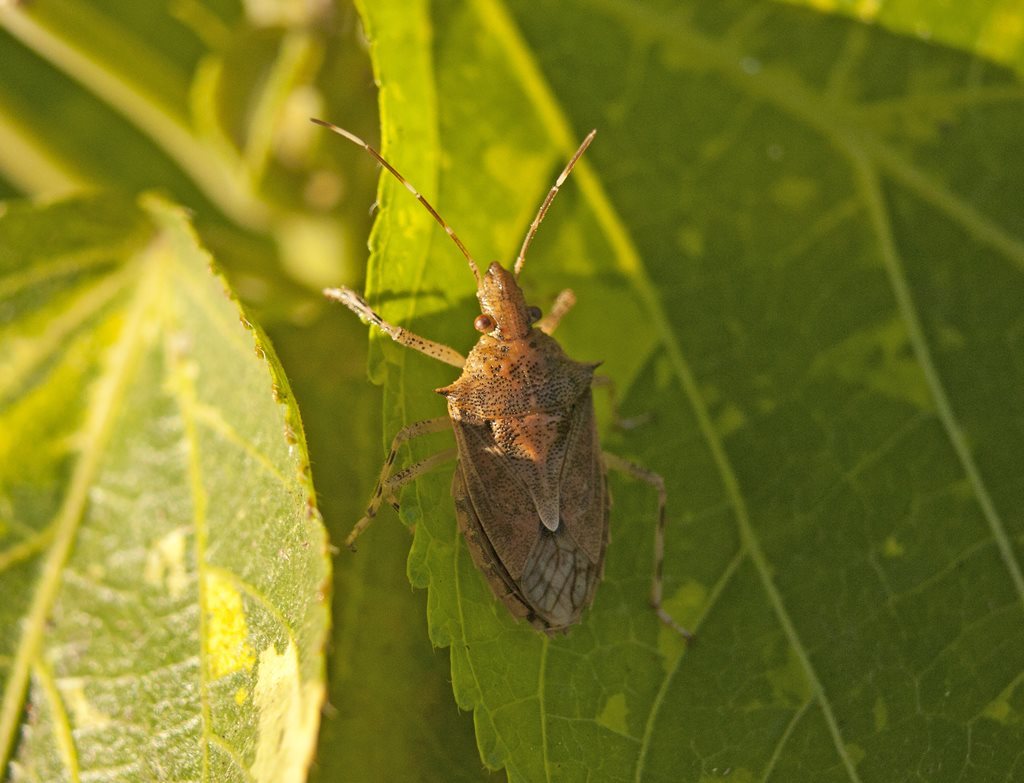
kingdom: Animalia
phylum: Arthropoda
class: Insecta
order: Hemiptera
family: Pentatomidae
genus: Bromocoris
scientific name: Bromocoris
